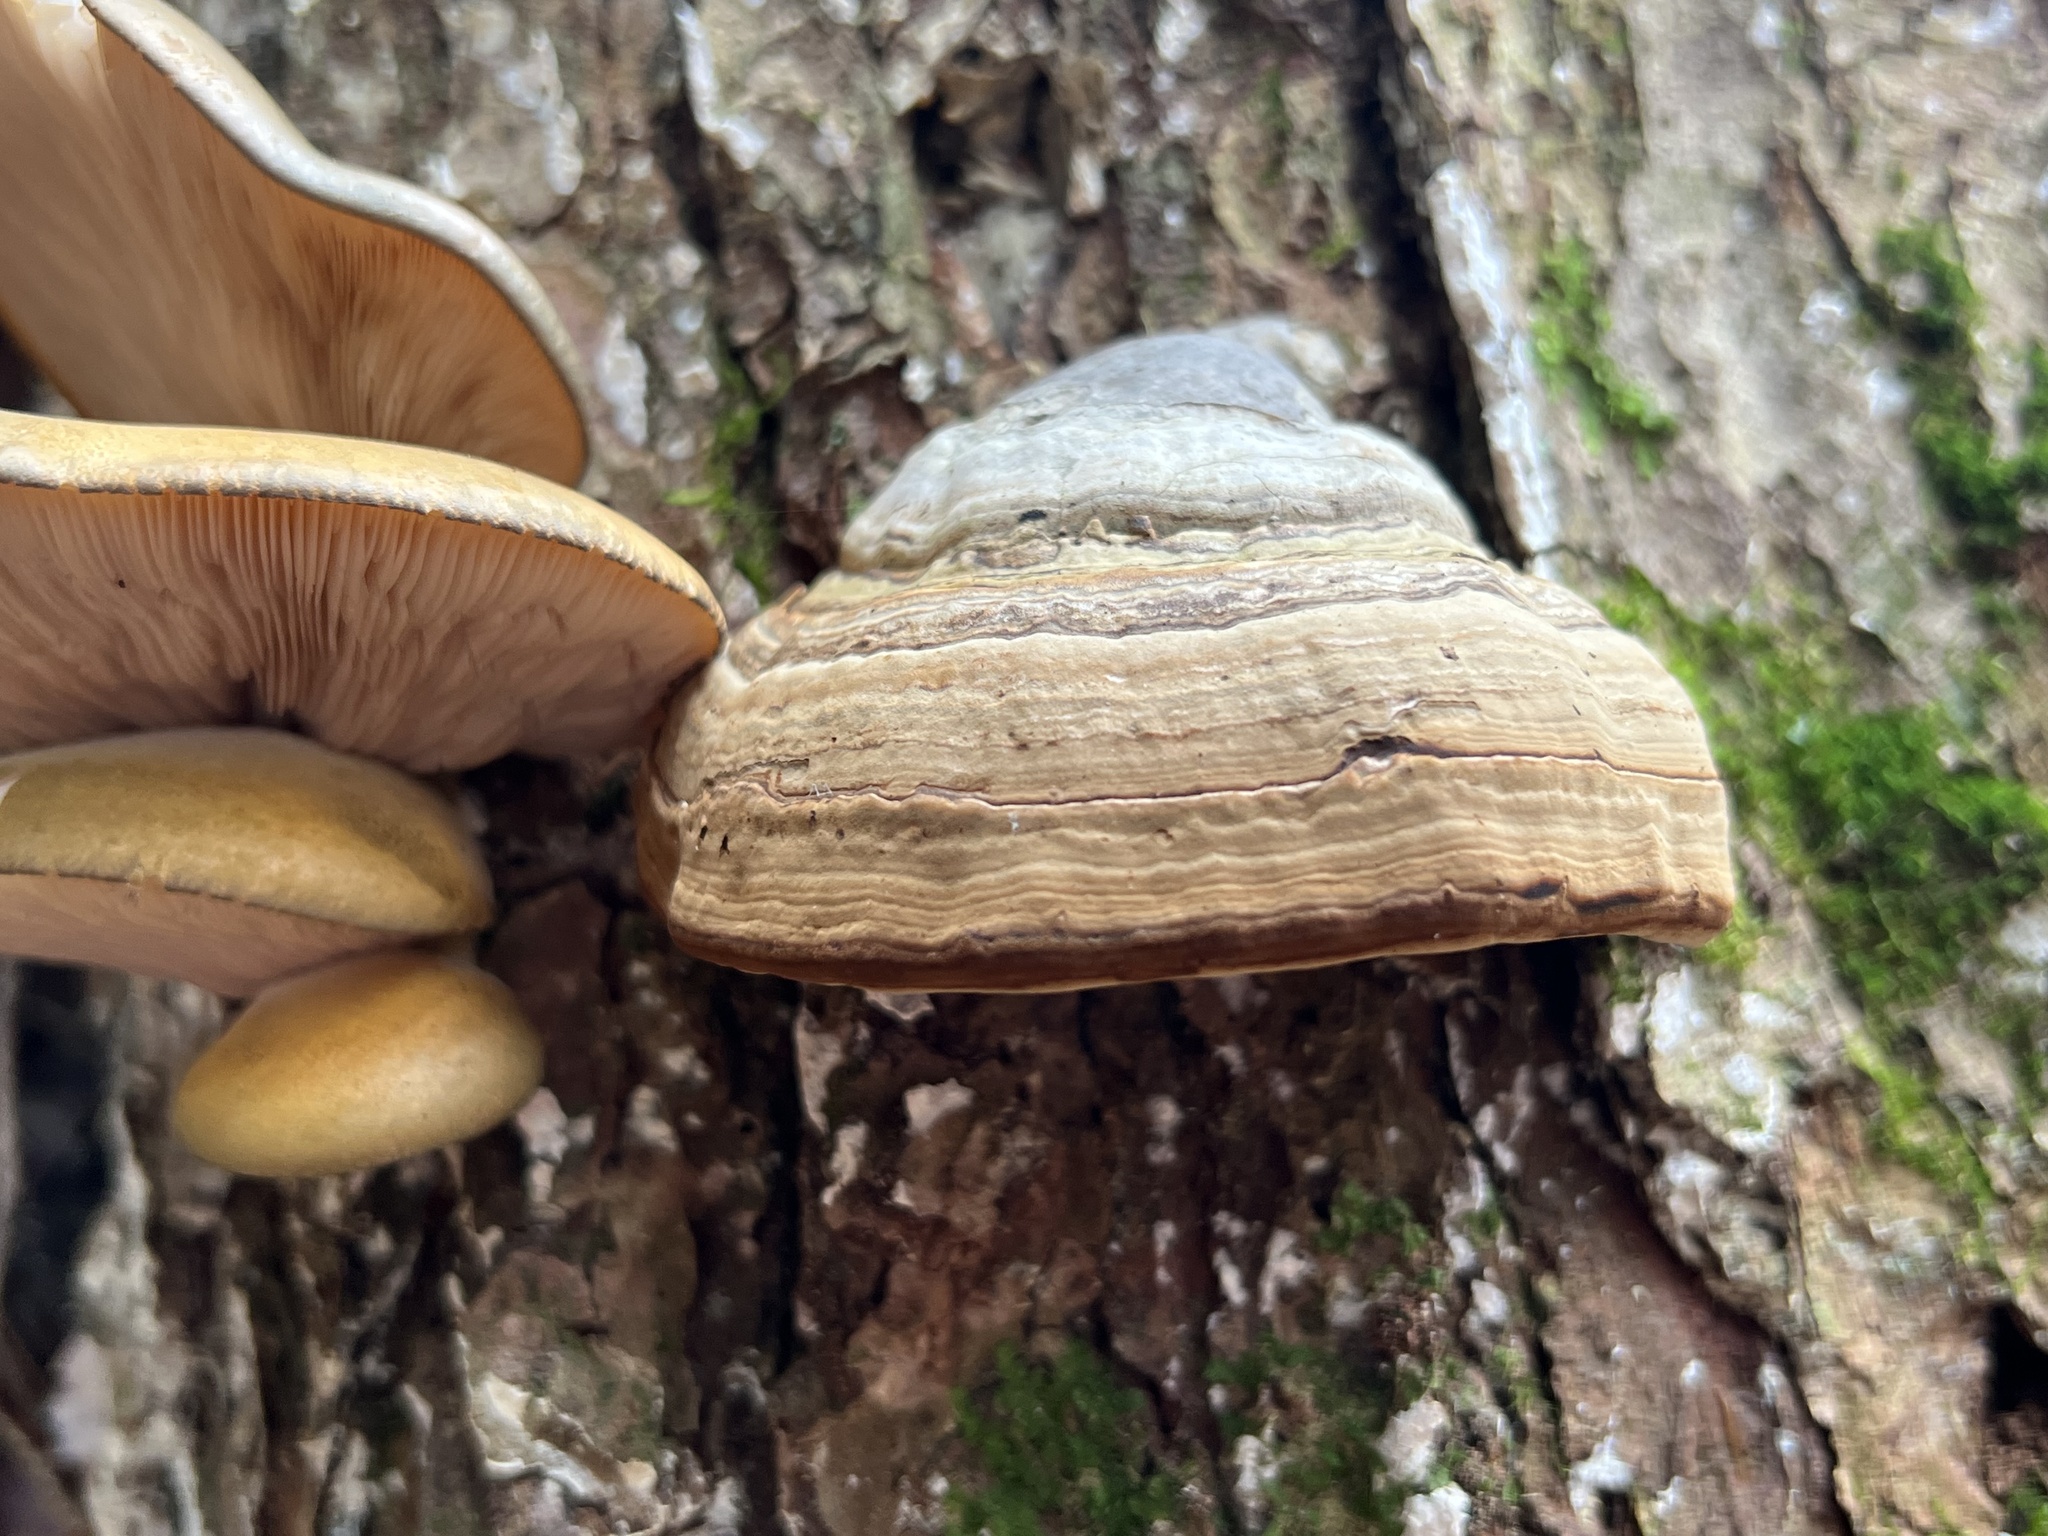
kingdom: Fungi
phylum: Basidiomycota
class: Agaricomycetes
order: Polyporales
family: Polyporaceae
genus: Fomes
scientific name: Fomes fomentarius
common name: Hoof fungus
